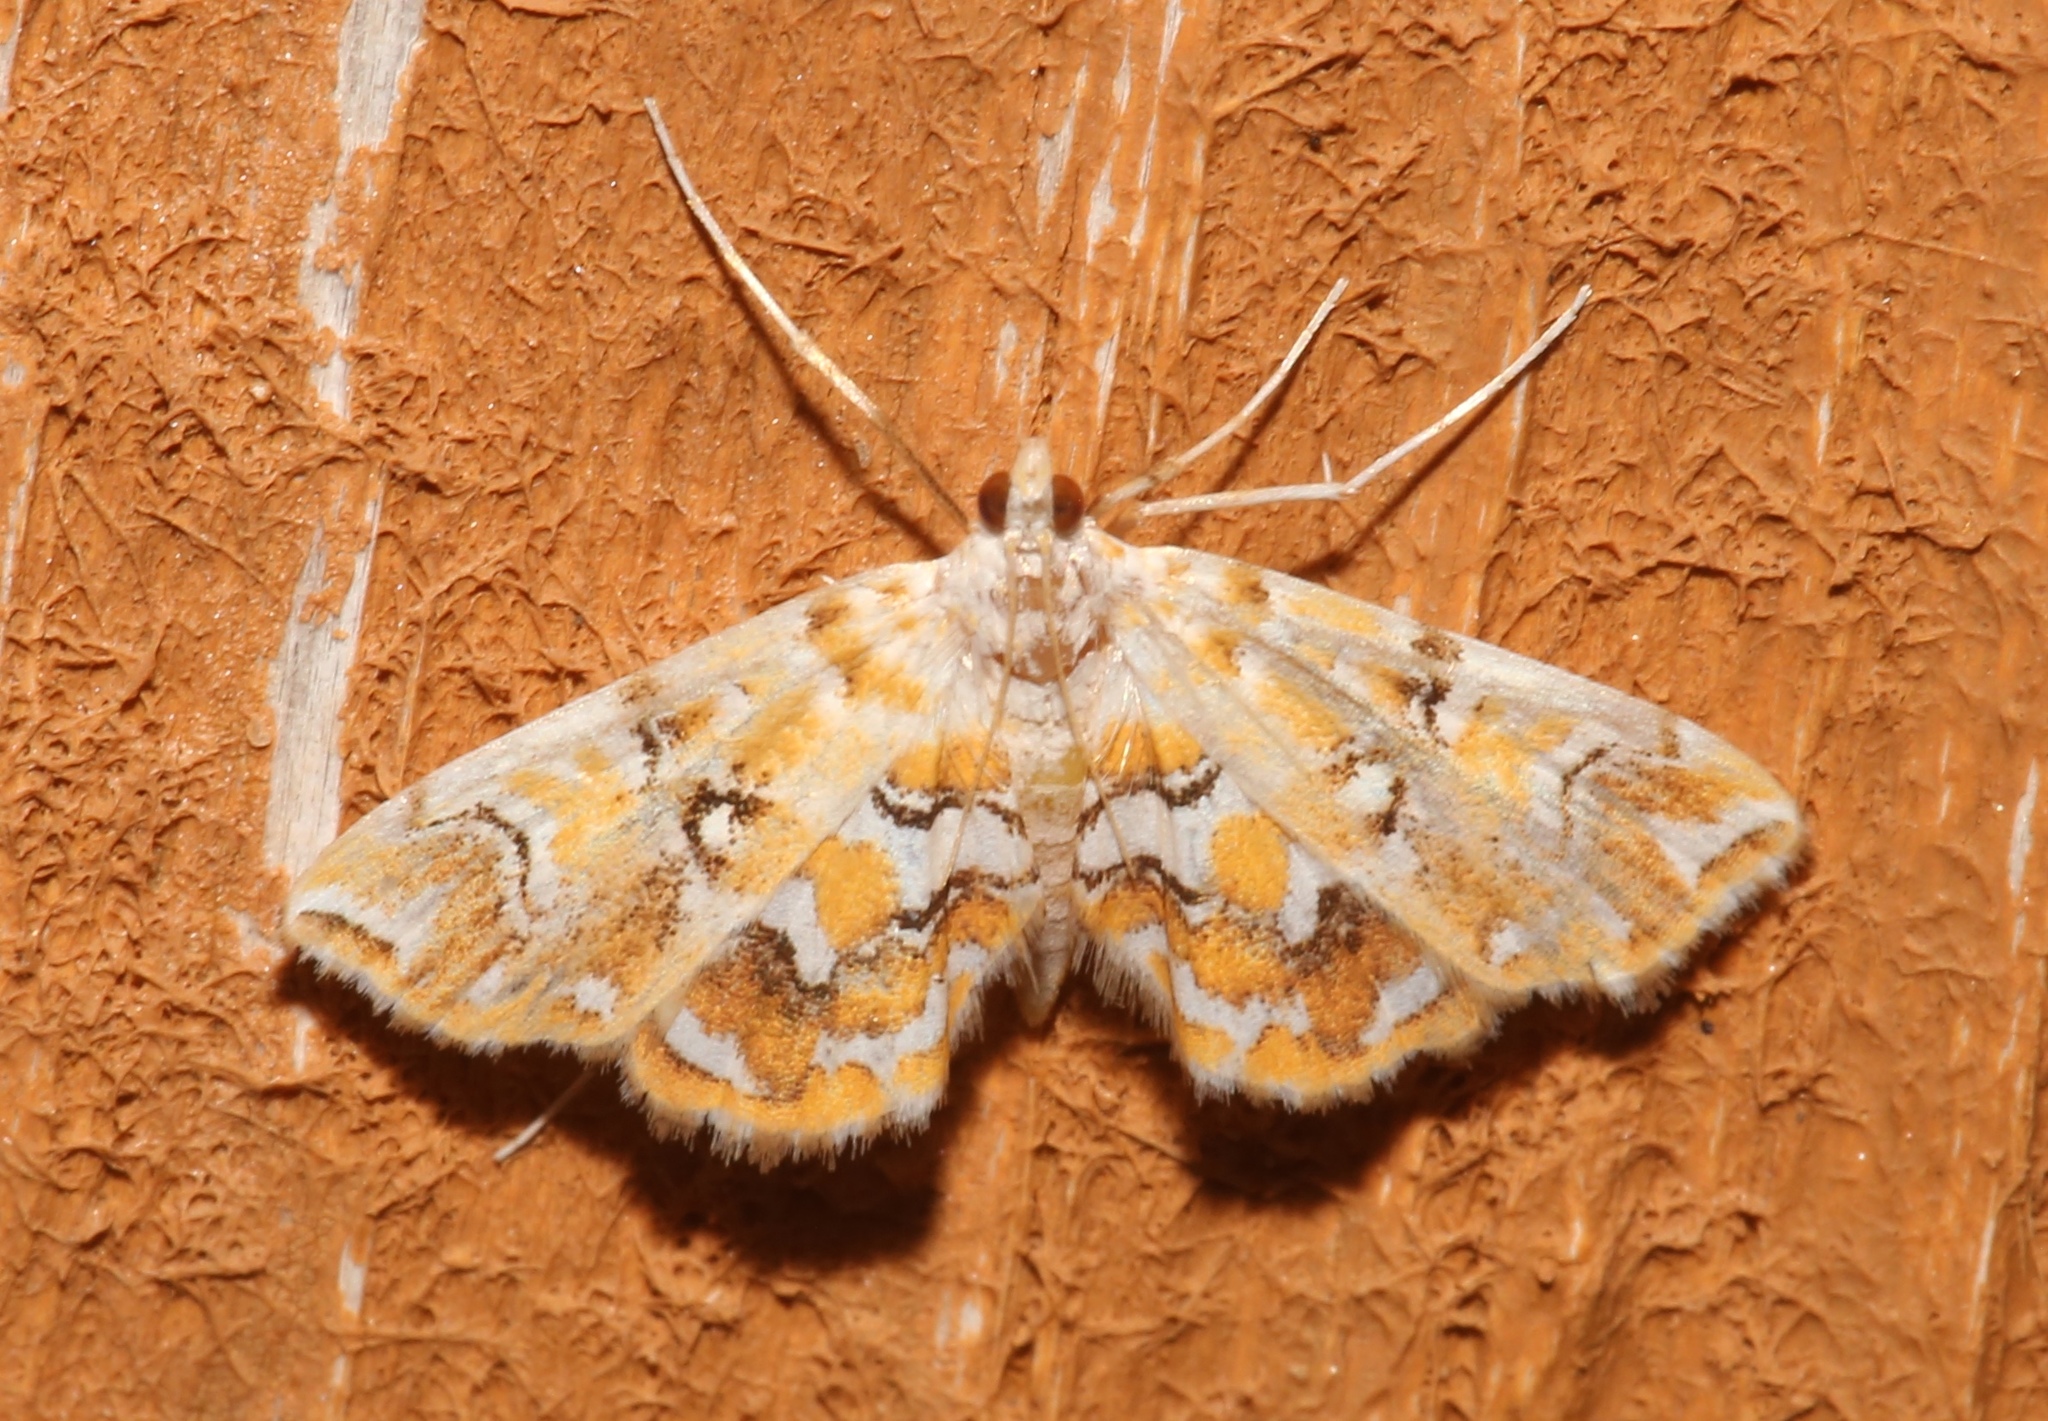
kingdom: Animalia
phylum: Arthropoda
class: Insecta
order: Lepidoptera
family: Crambidae
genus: Elophila
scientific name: Elophila icciusalis
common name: Pondside pyralid moth
